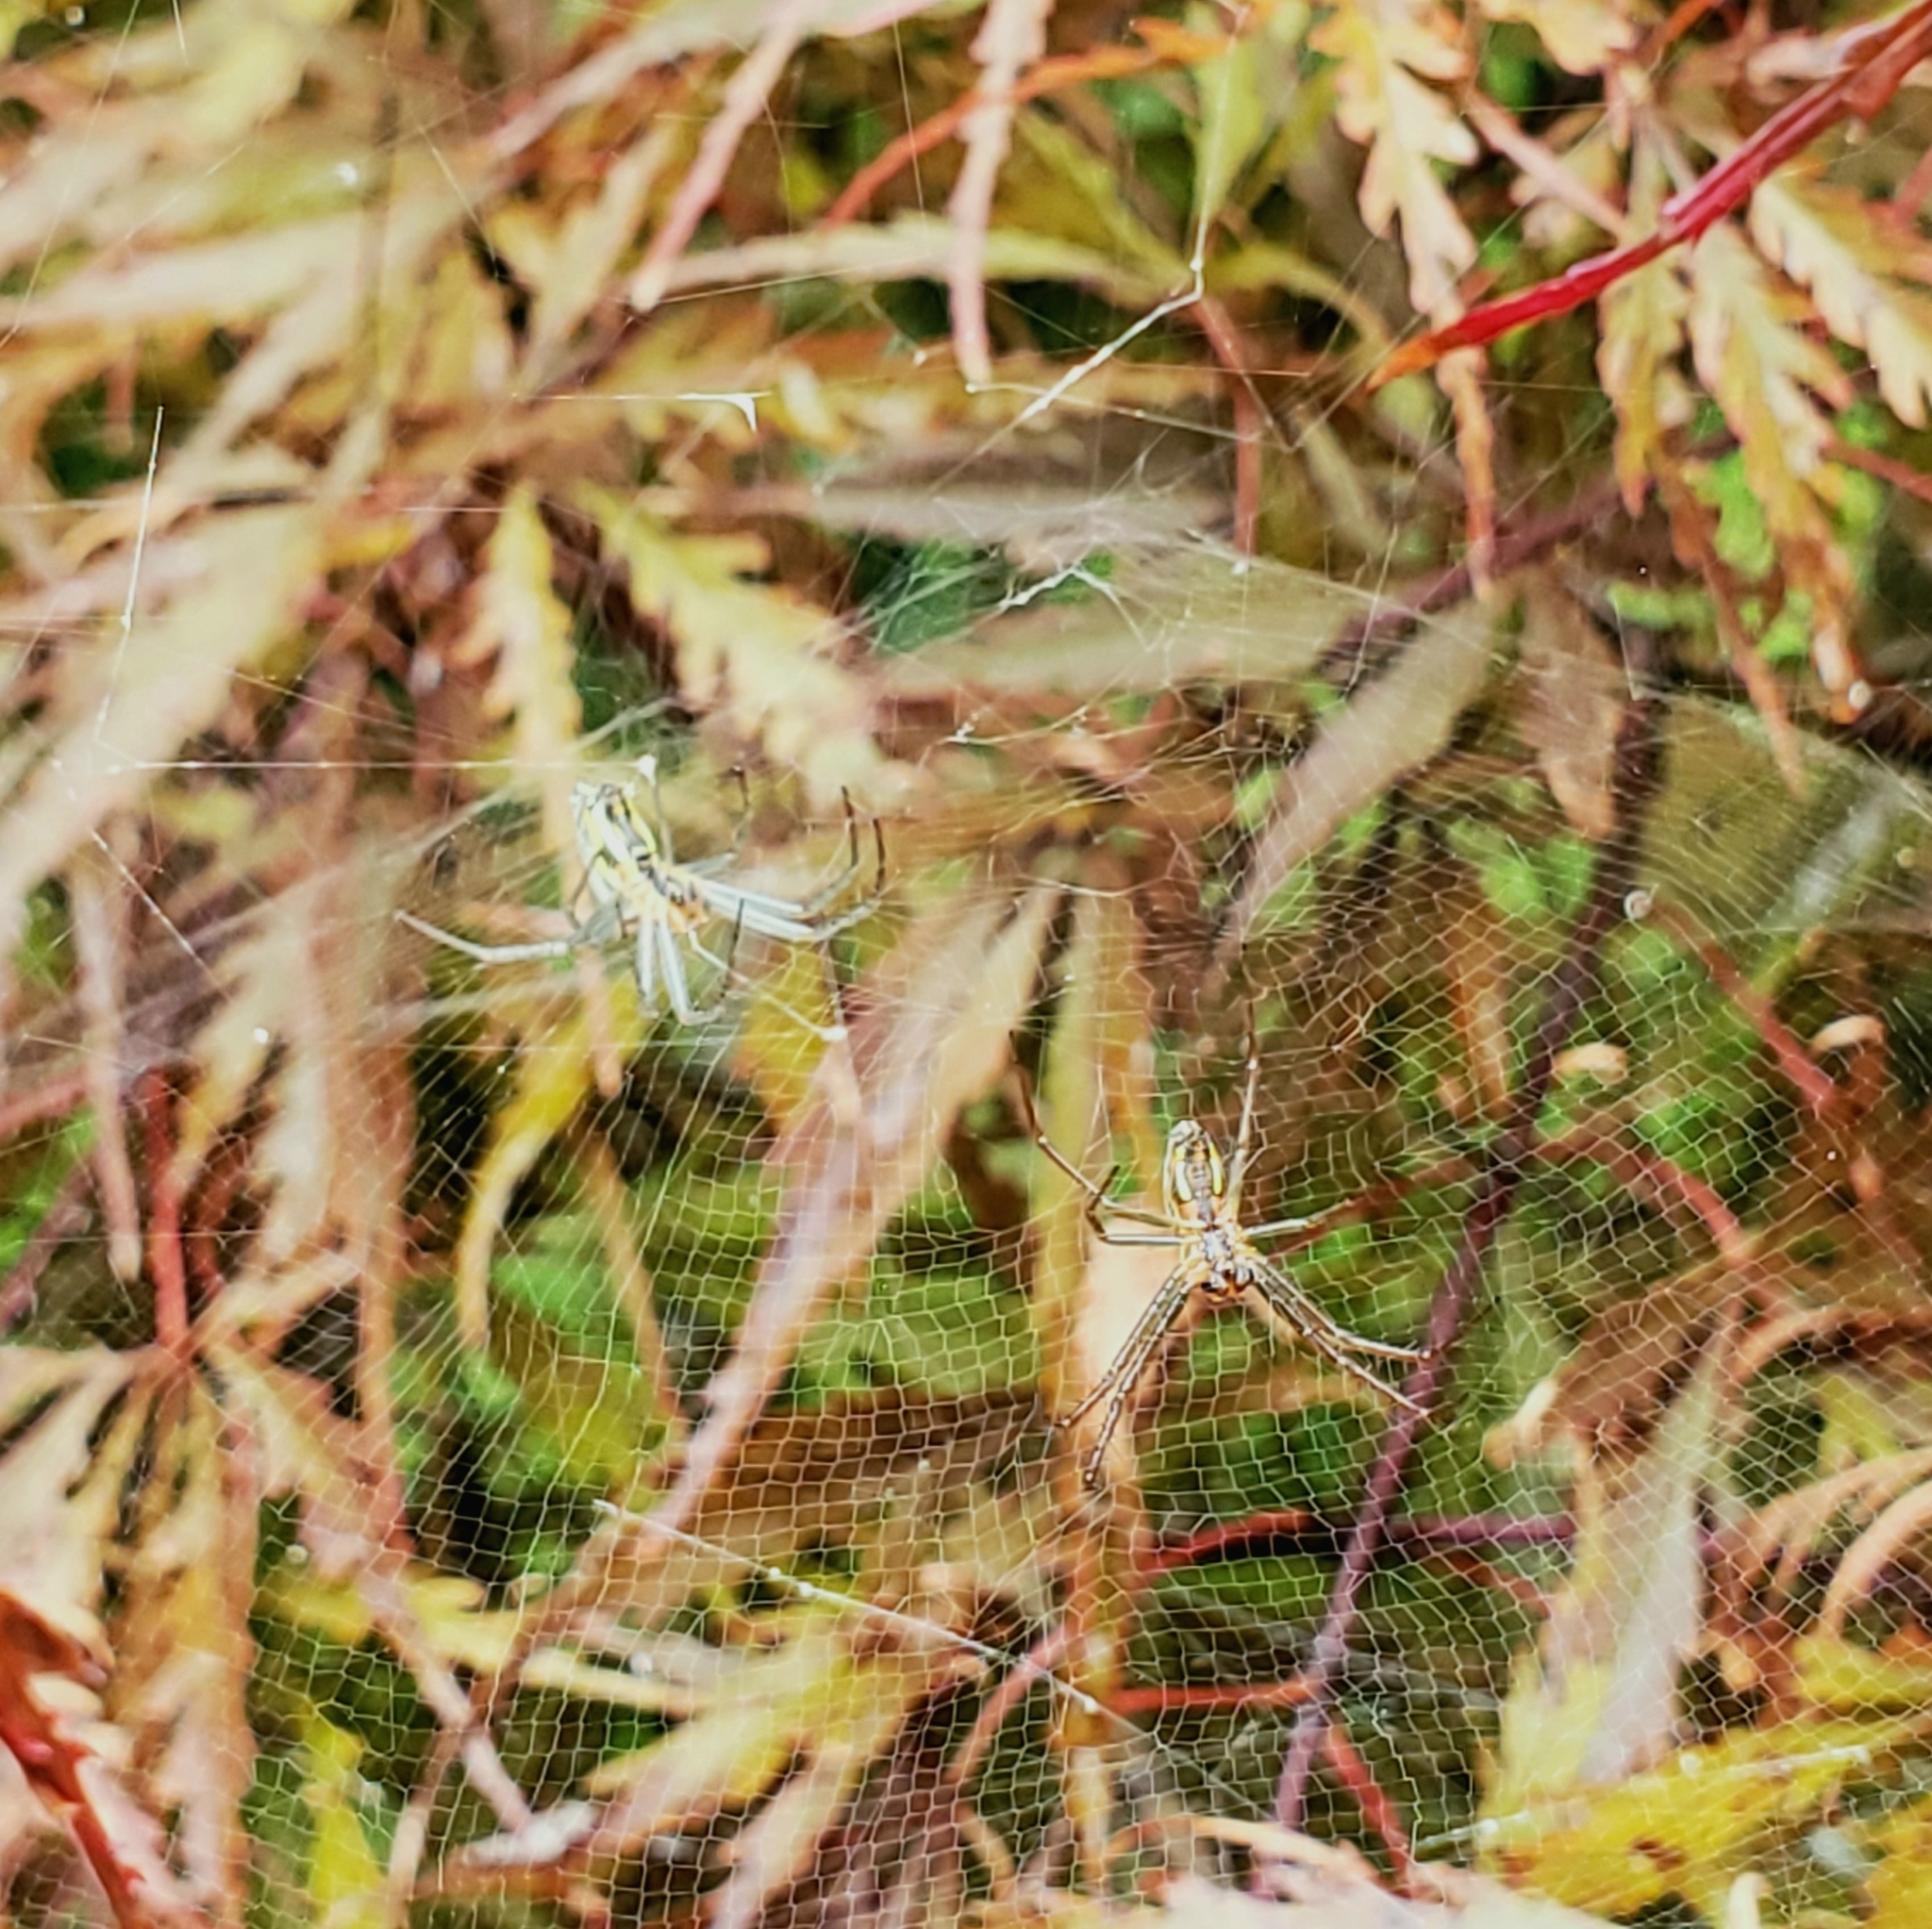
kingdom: Animalia
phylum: Arthropoda
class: Arachnida
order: Araneae
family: Araneidae
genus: Mecynogea
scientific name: Mecynogea lemniscata
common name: Orb weavers
